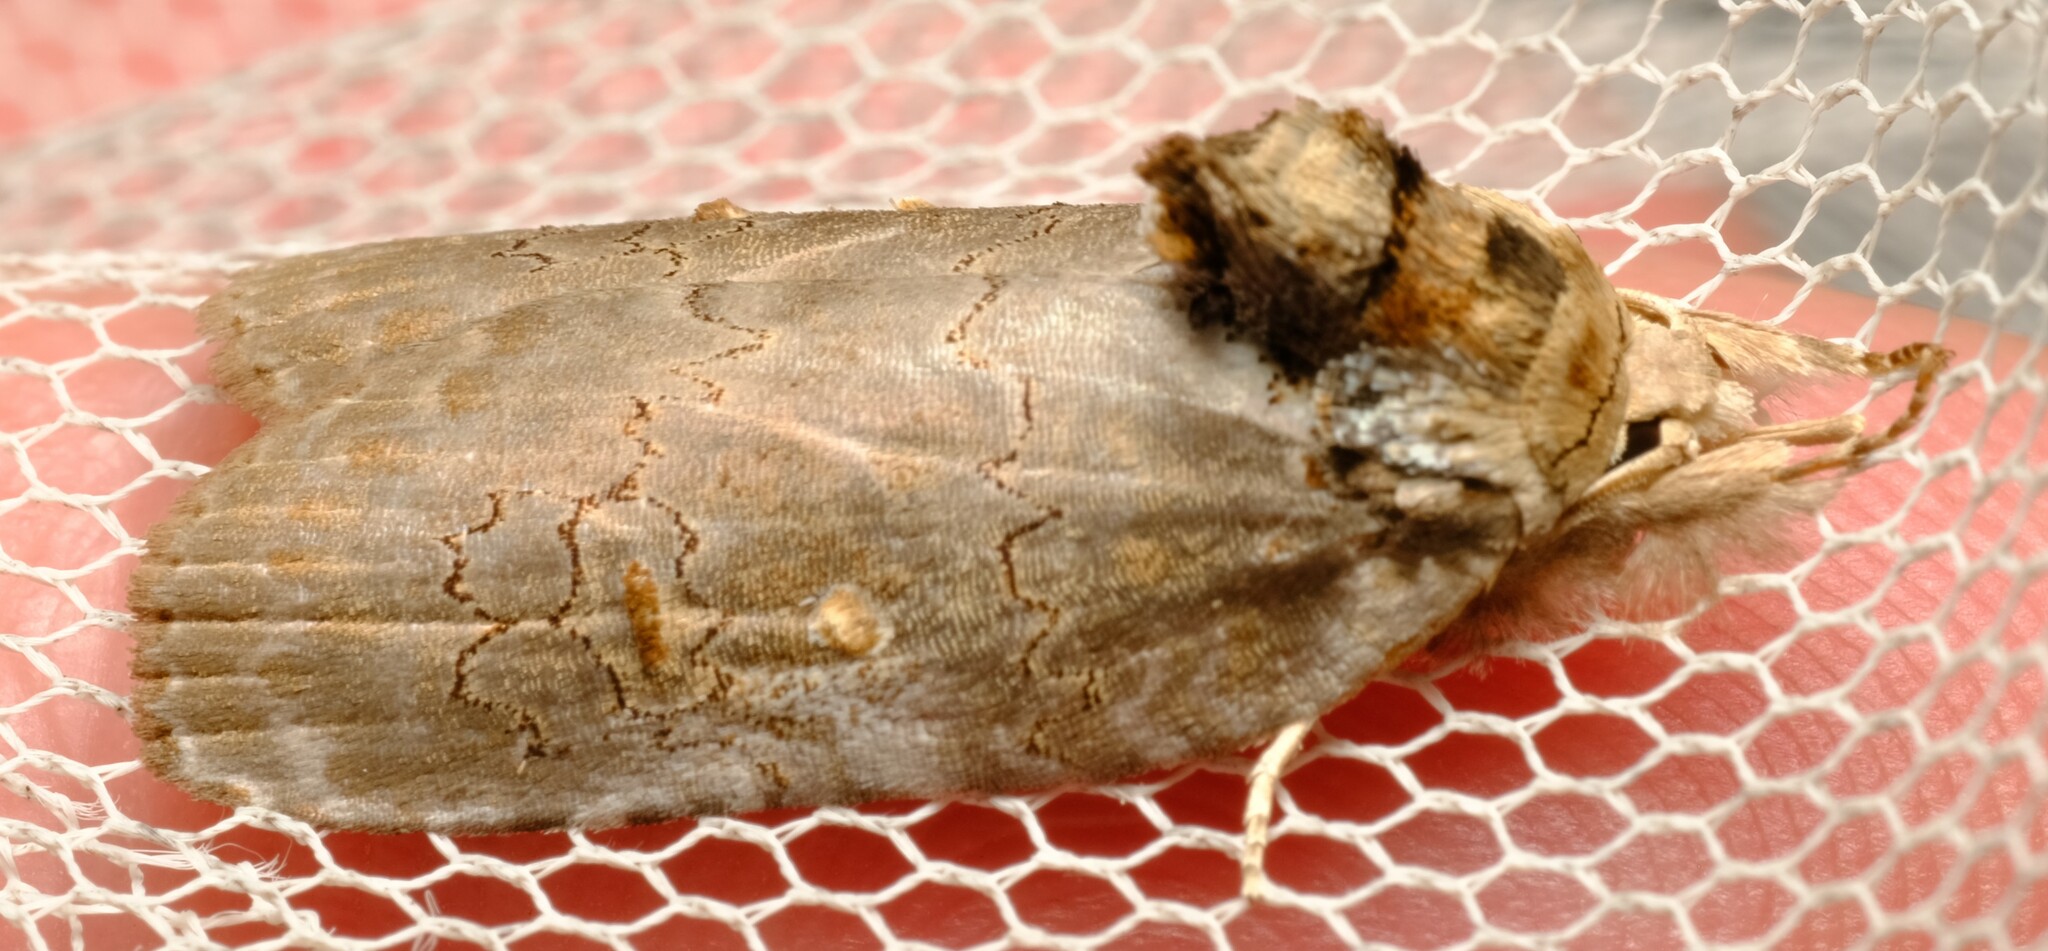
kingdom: Animalia
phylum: Arthropoda
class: Insecta
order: Lepidoptera
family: Noctuidae
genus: Ochthophora
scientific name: Ochthophora sericina
